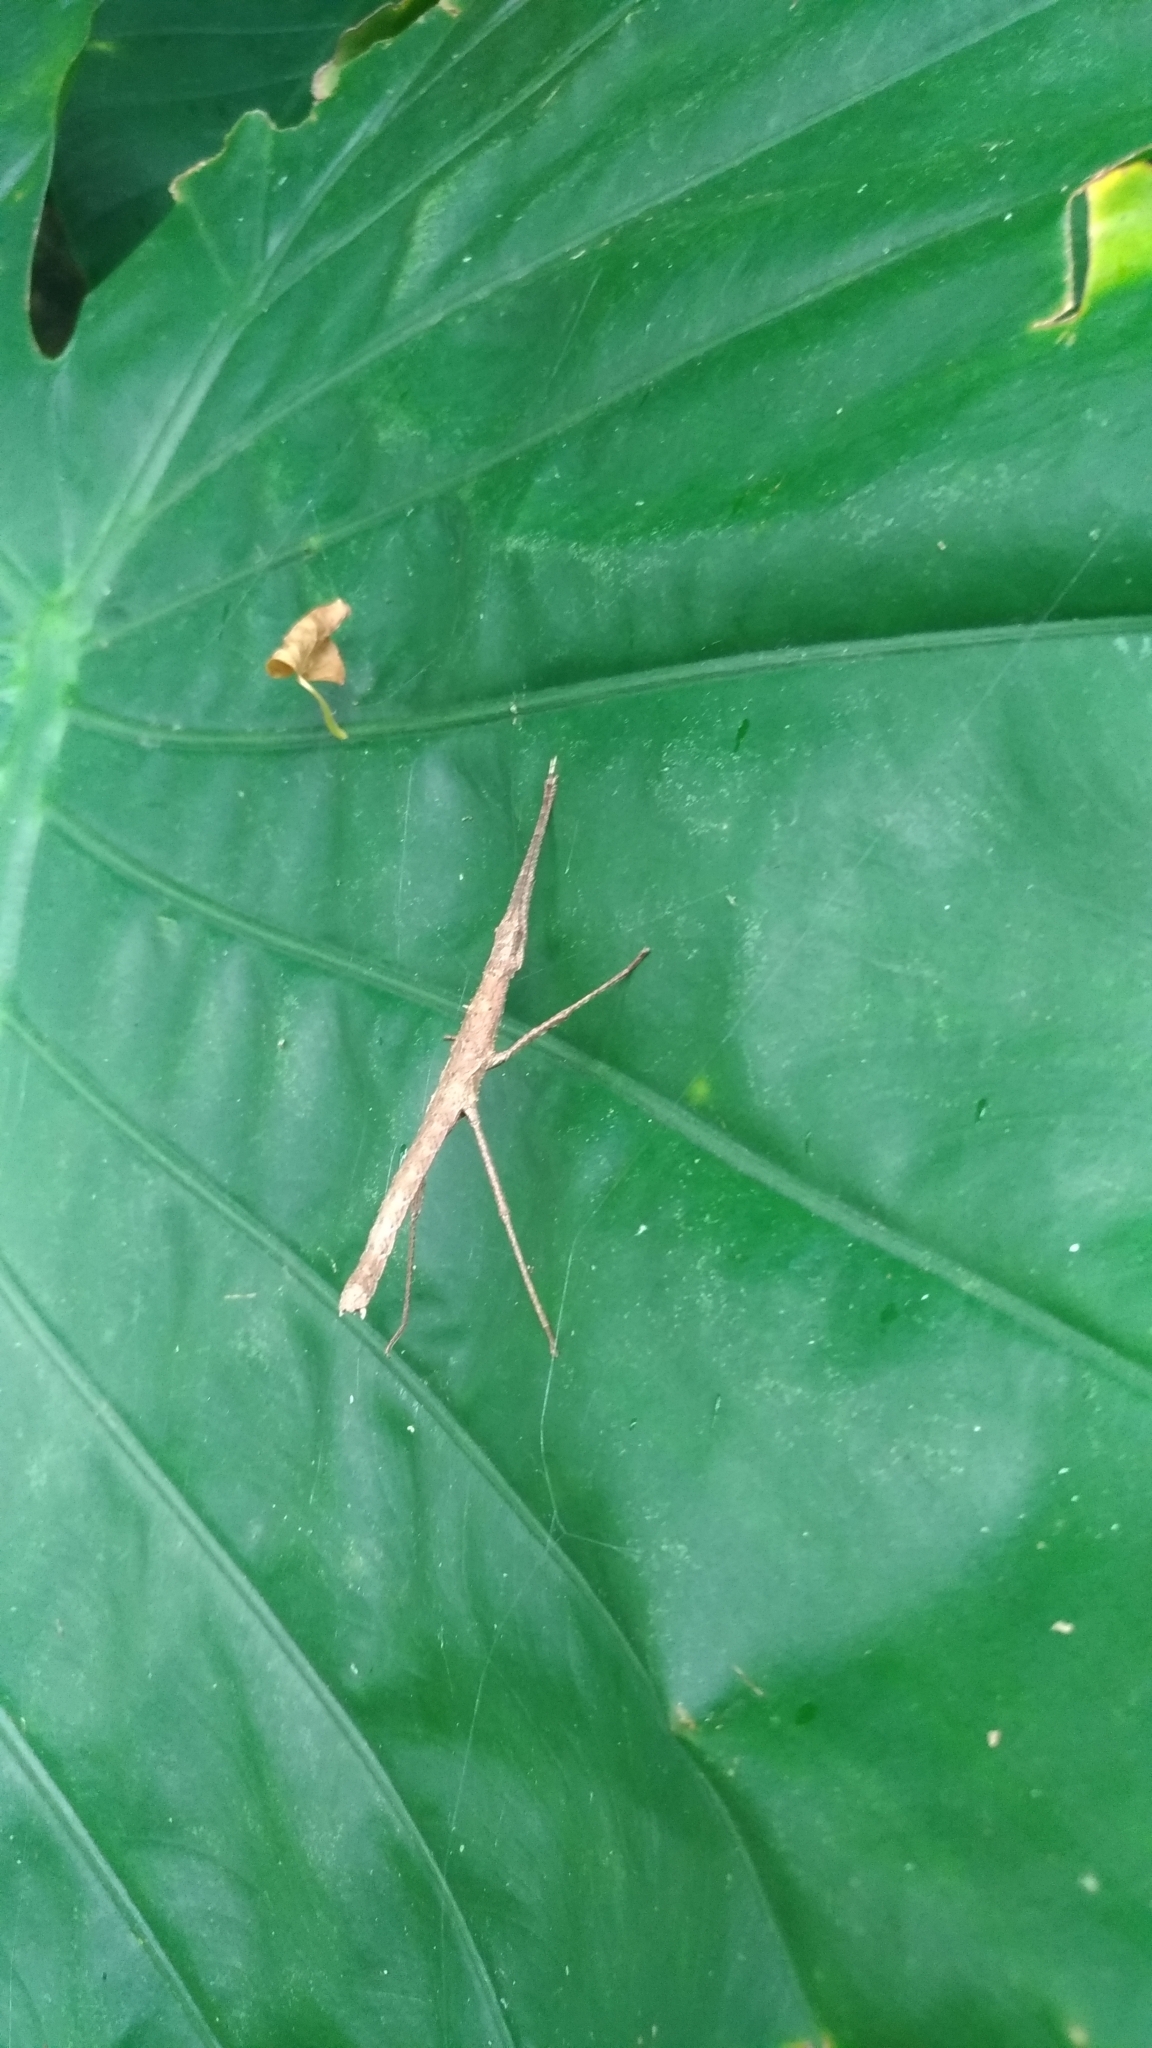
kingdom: Animalia
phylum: Arthropoda
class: Insecta
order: Phasmida
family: Lonchodidae
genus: Neohirasea
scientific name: Neohirasea japonica
